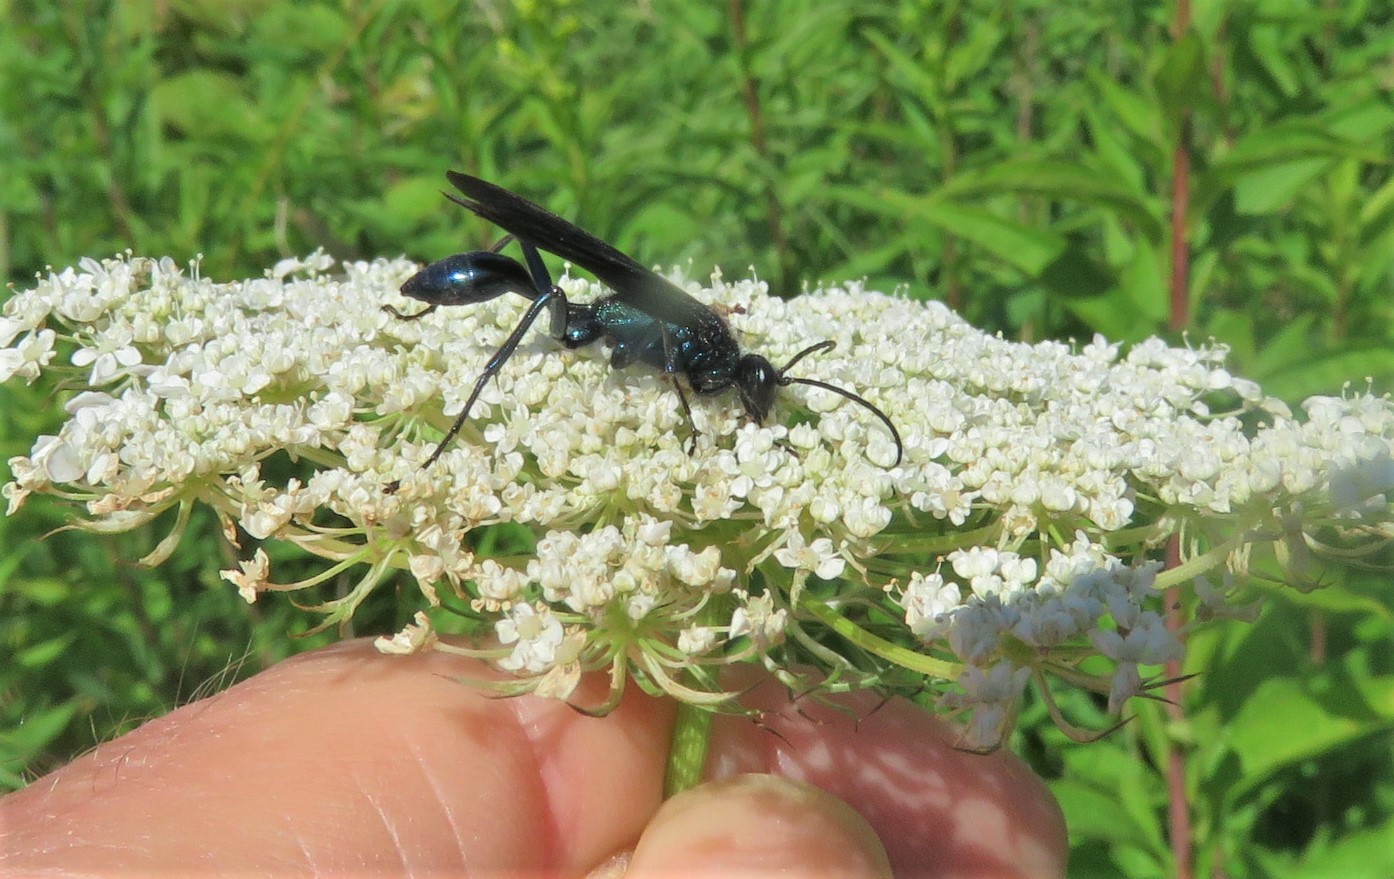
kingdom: Animalia
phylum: Arthropoda
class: Insecta
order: Hymenoptera
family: Sphecidae
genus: Chalybion
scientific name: Chalybion californicum
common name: Mud dauber
